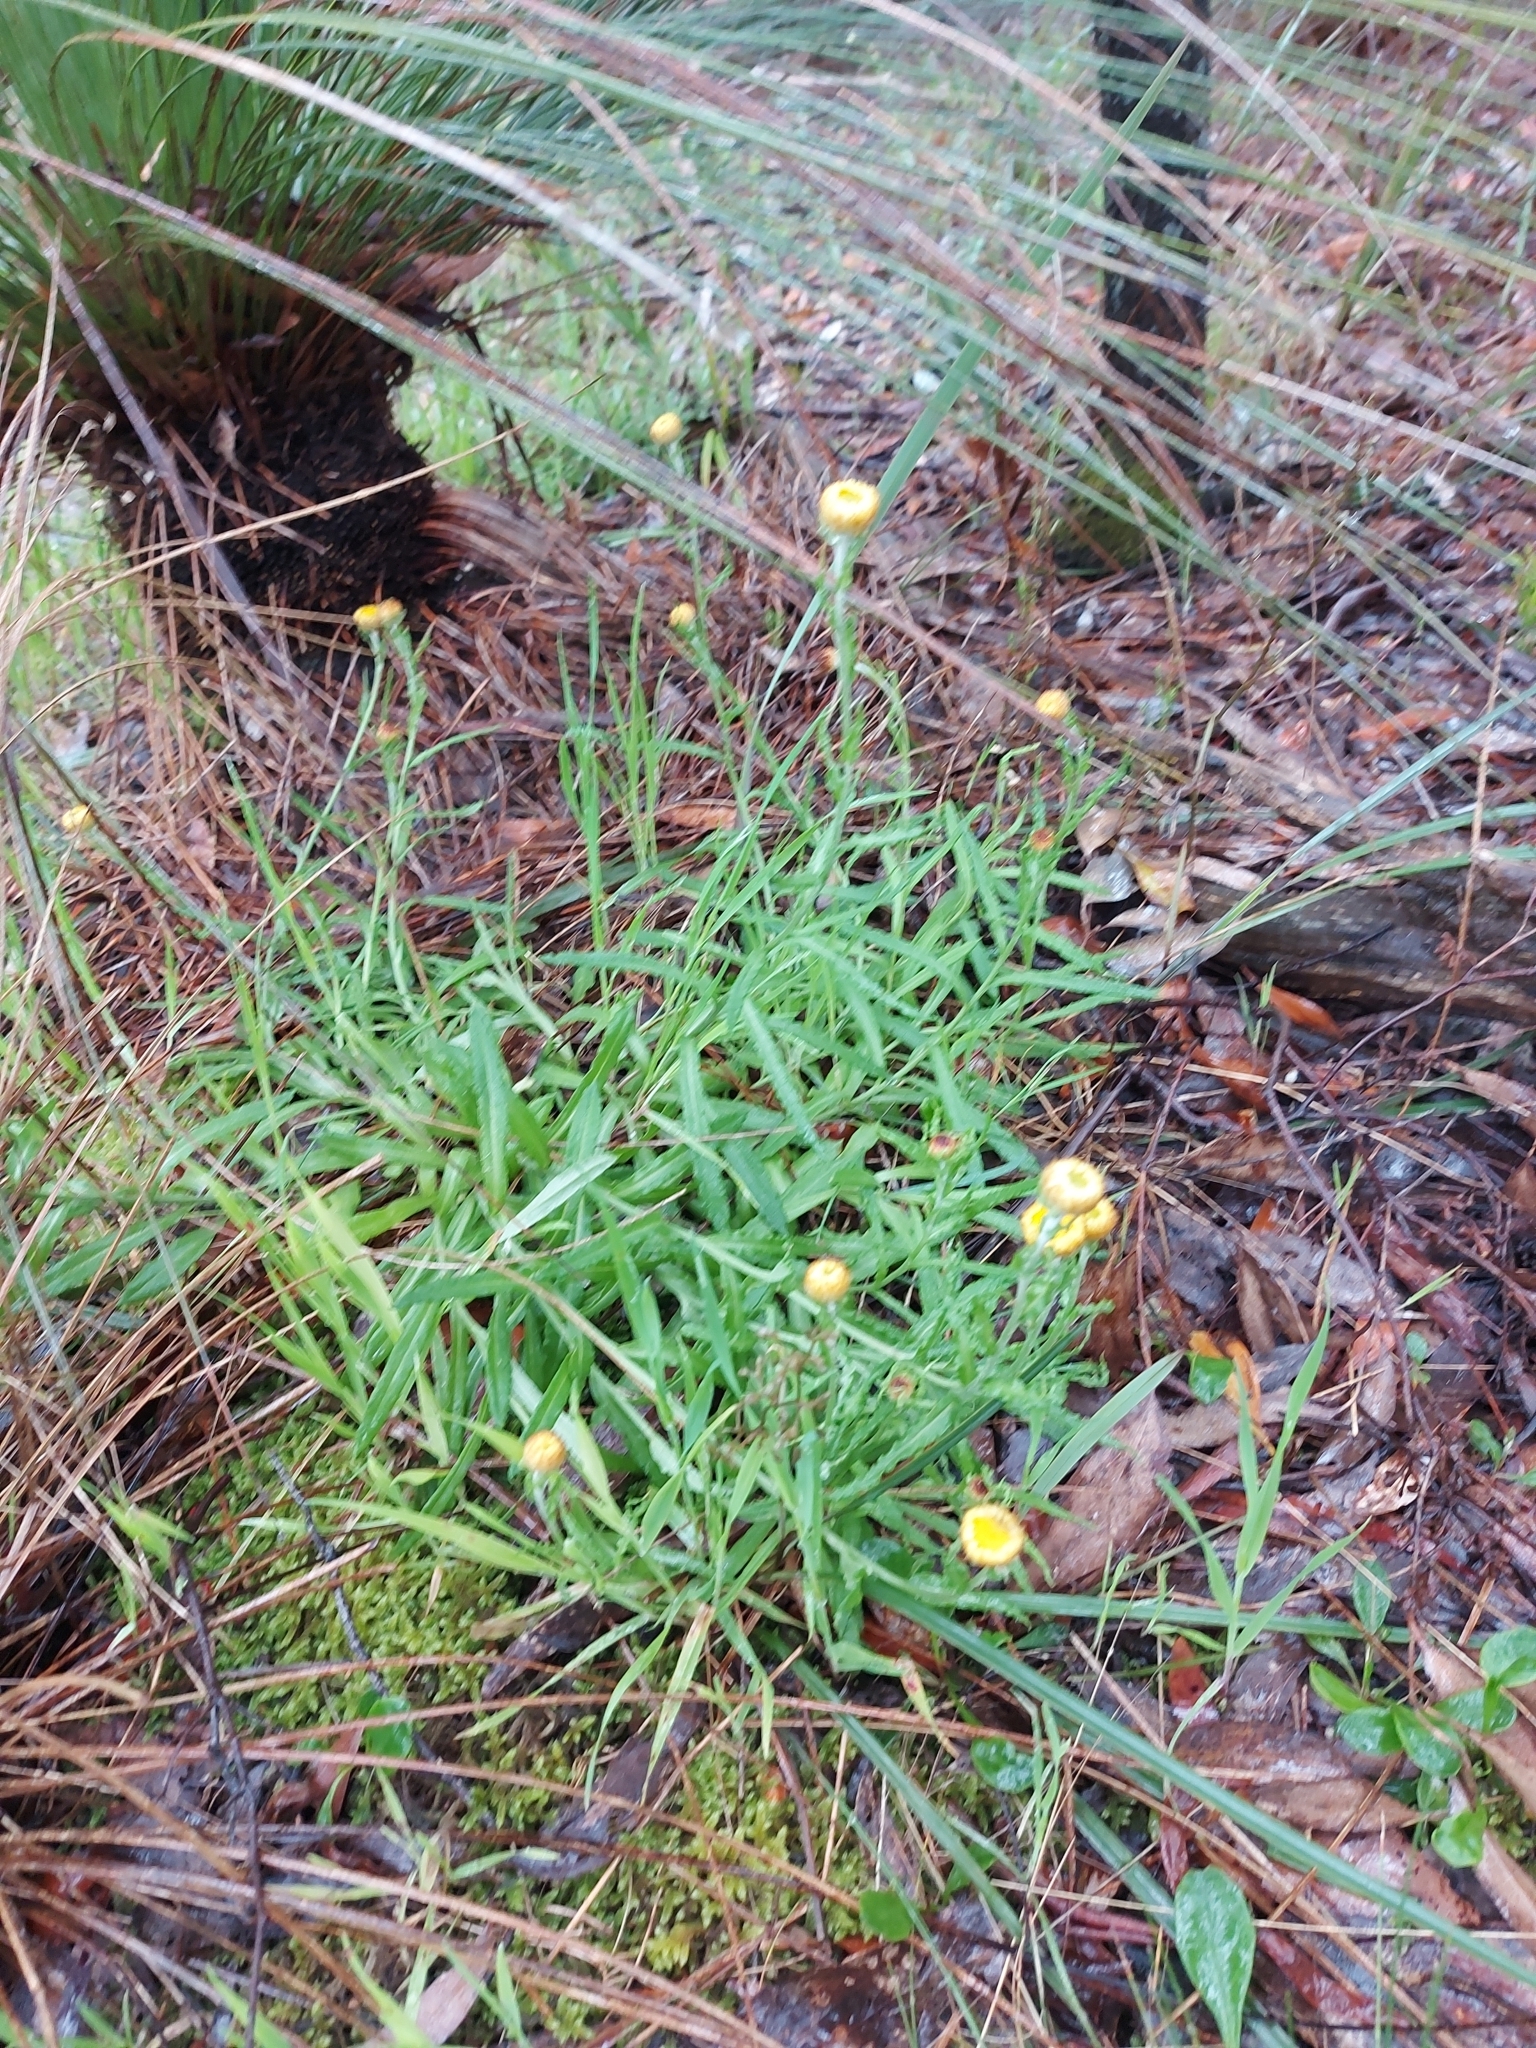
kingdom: Plantae
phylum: Tracheophyta
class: Magnoliopsida
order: Asterales
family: Asteraceae
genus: Coronidium
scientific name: Coronidium scorpioides
